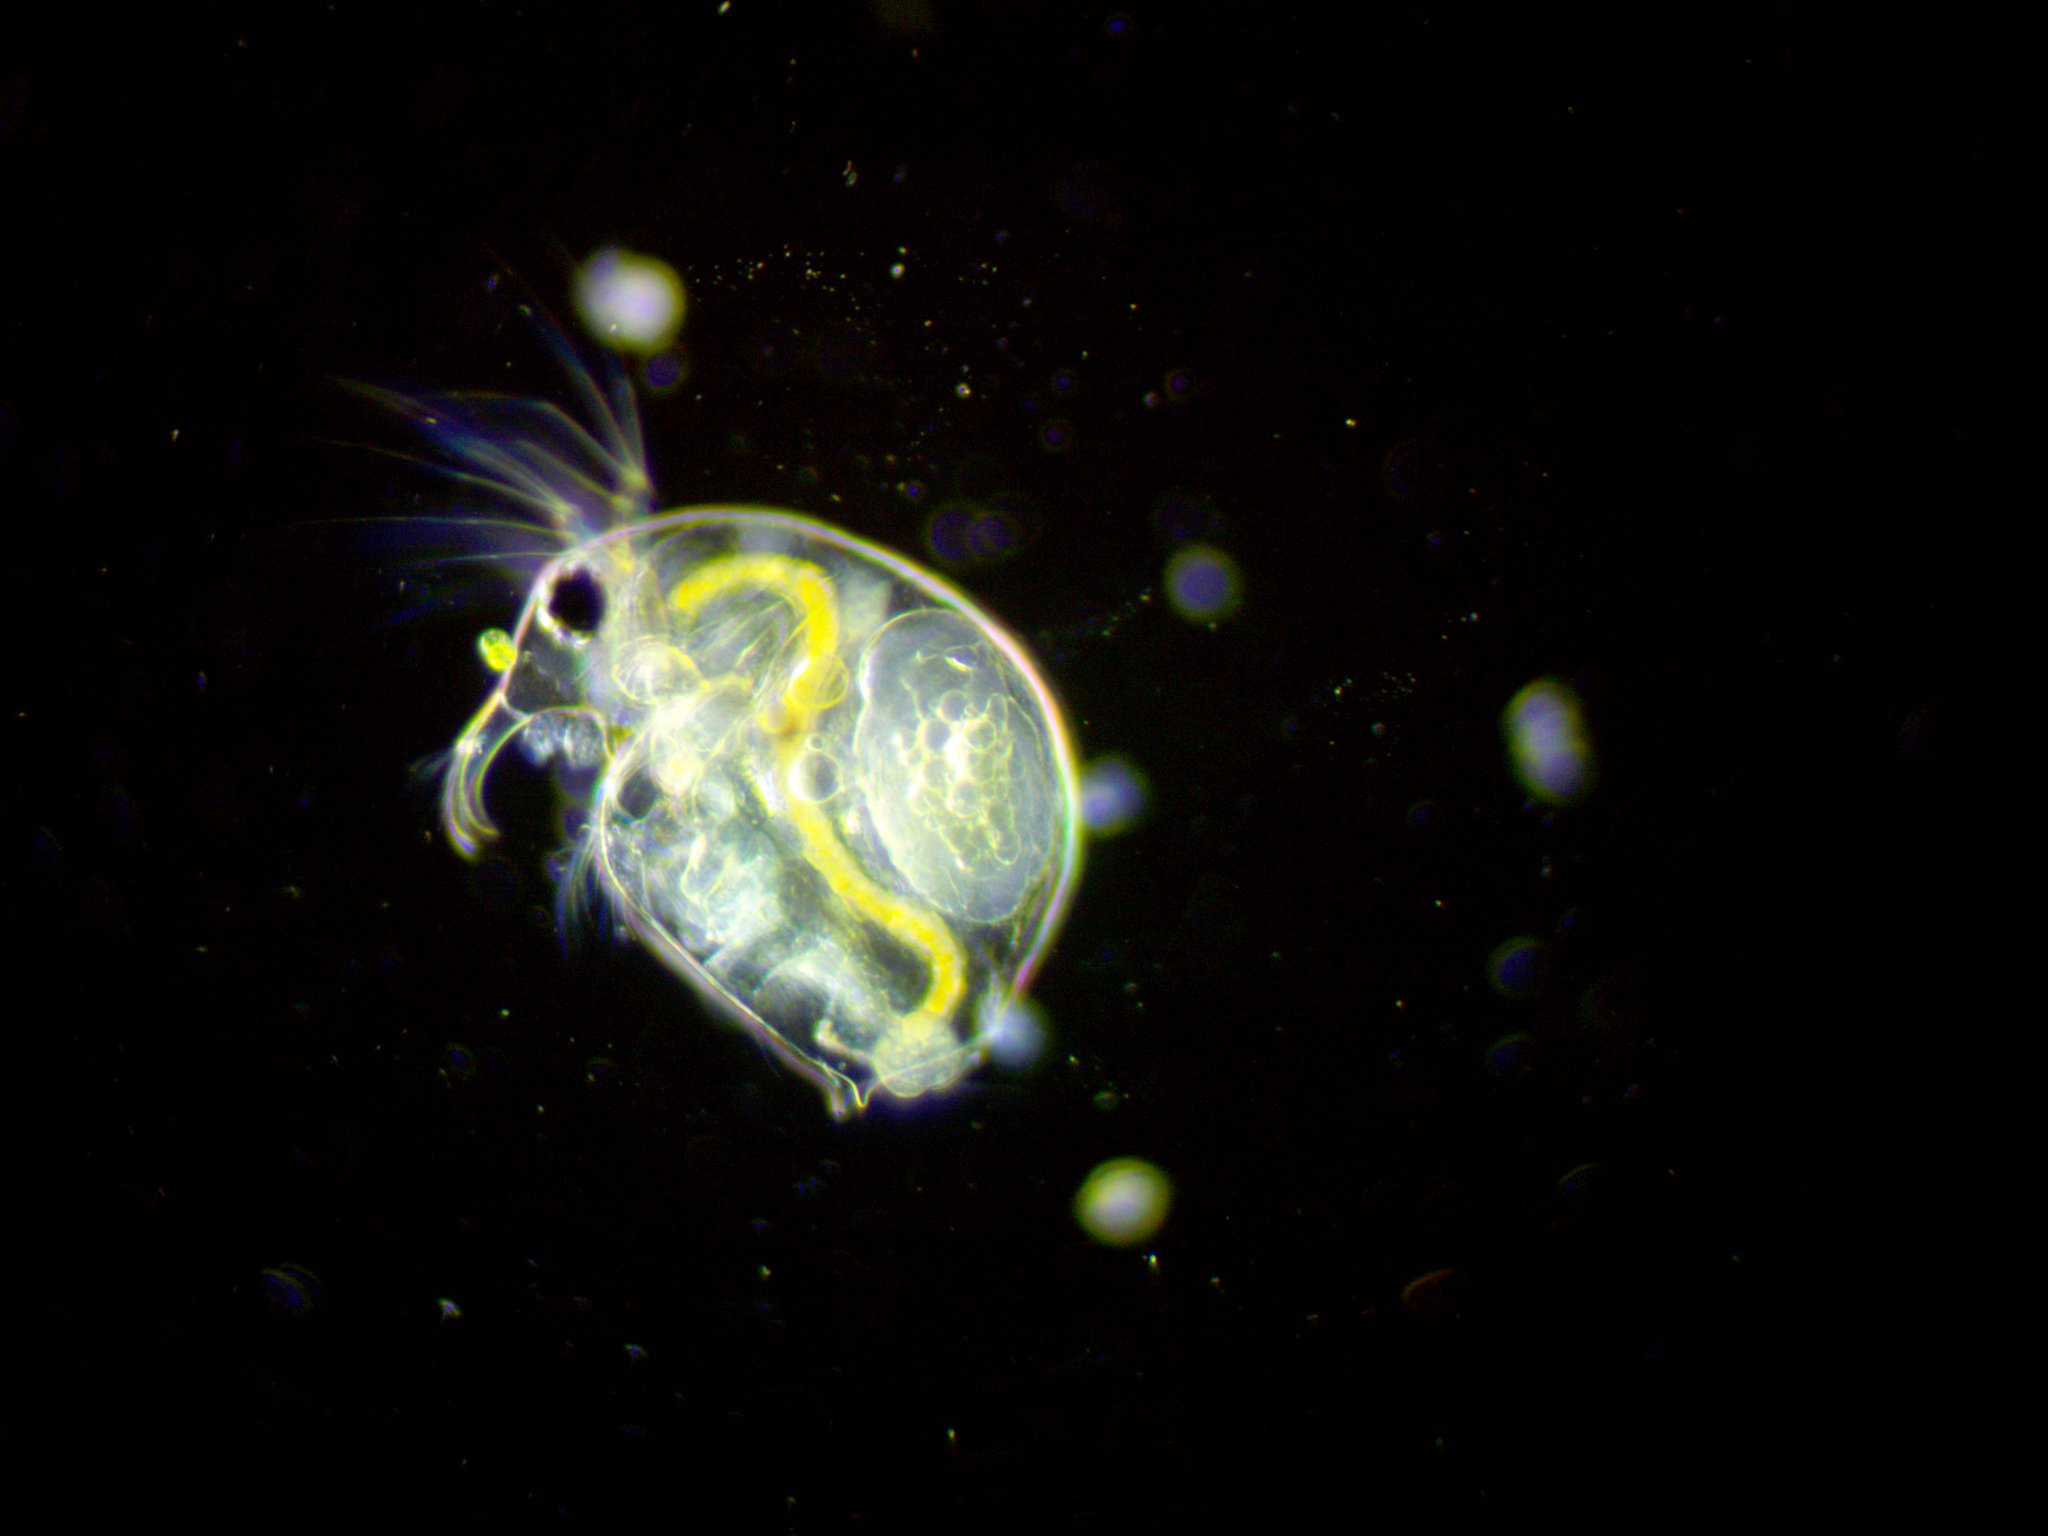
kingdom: Animalia
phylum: Arthropoda
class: Branchiopoda
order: Diplostraca
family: Bosminidae
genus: Bosmina
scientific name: Bosmina longirostris
